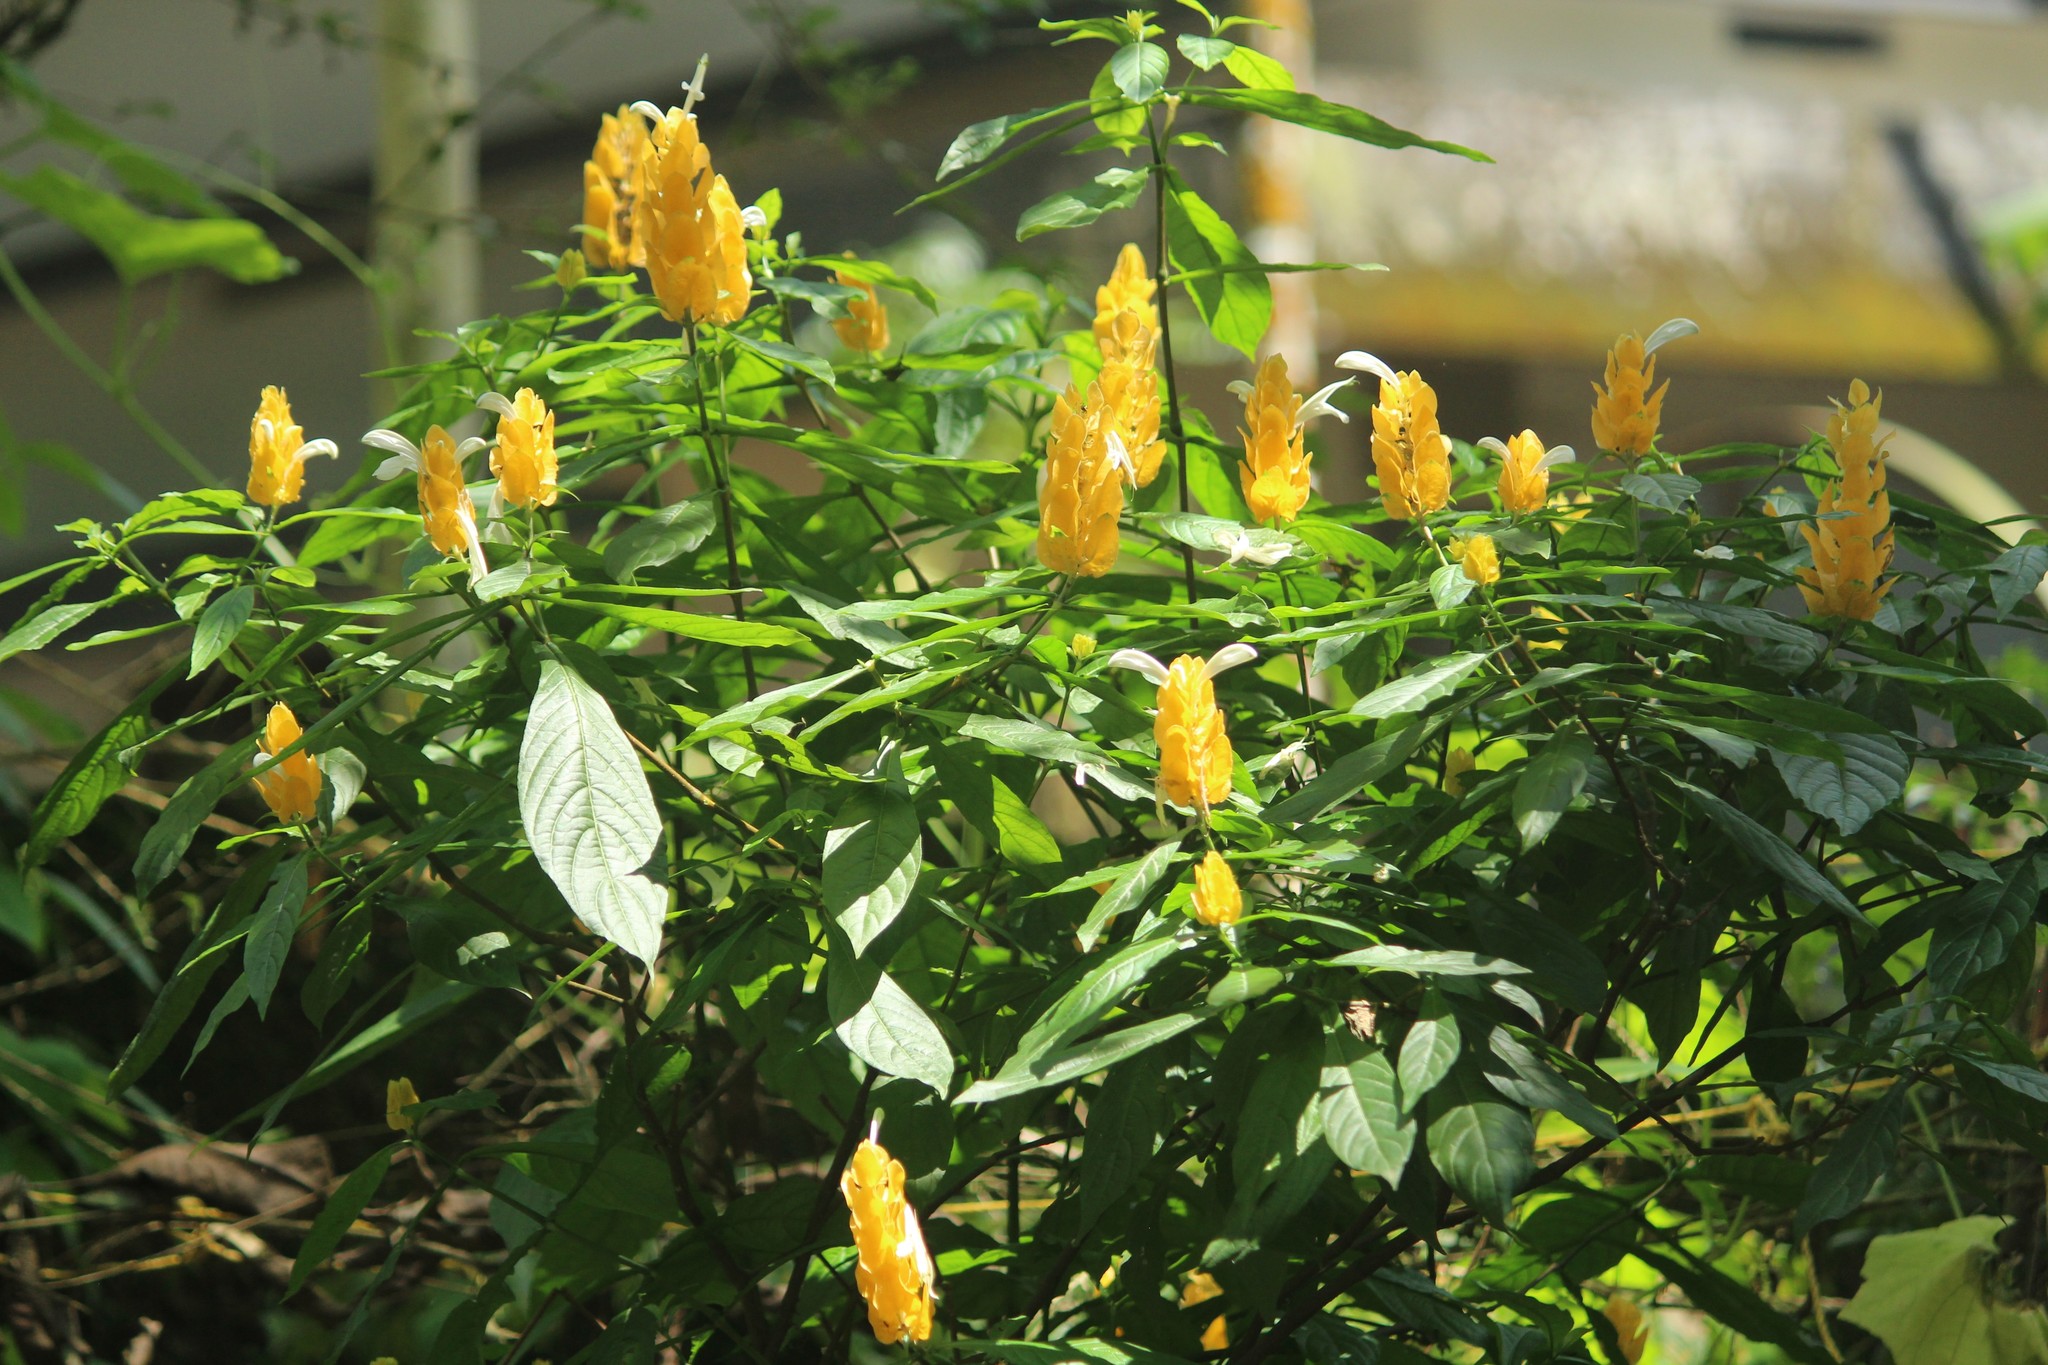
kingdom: Plantae
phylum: Tracheophyta
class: Magnoliopsida
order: Lamiales
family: Acanthaceae
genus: Pachystachys
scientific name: Pachystachys lutea
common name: Golden shrimp-plant
